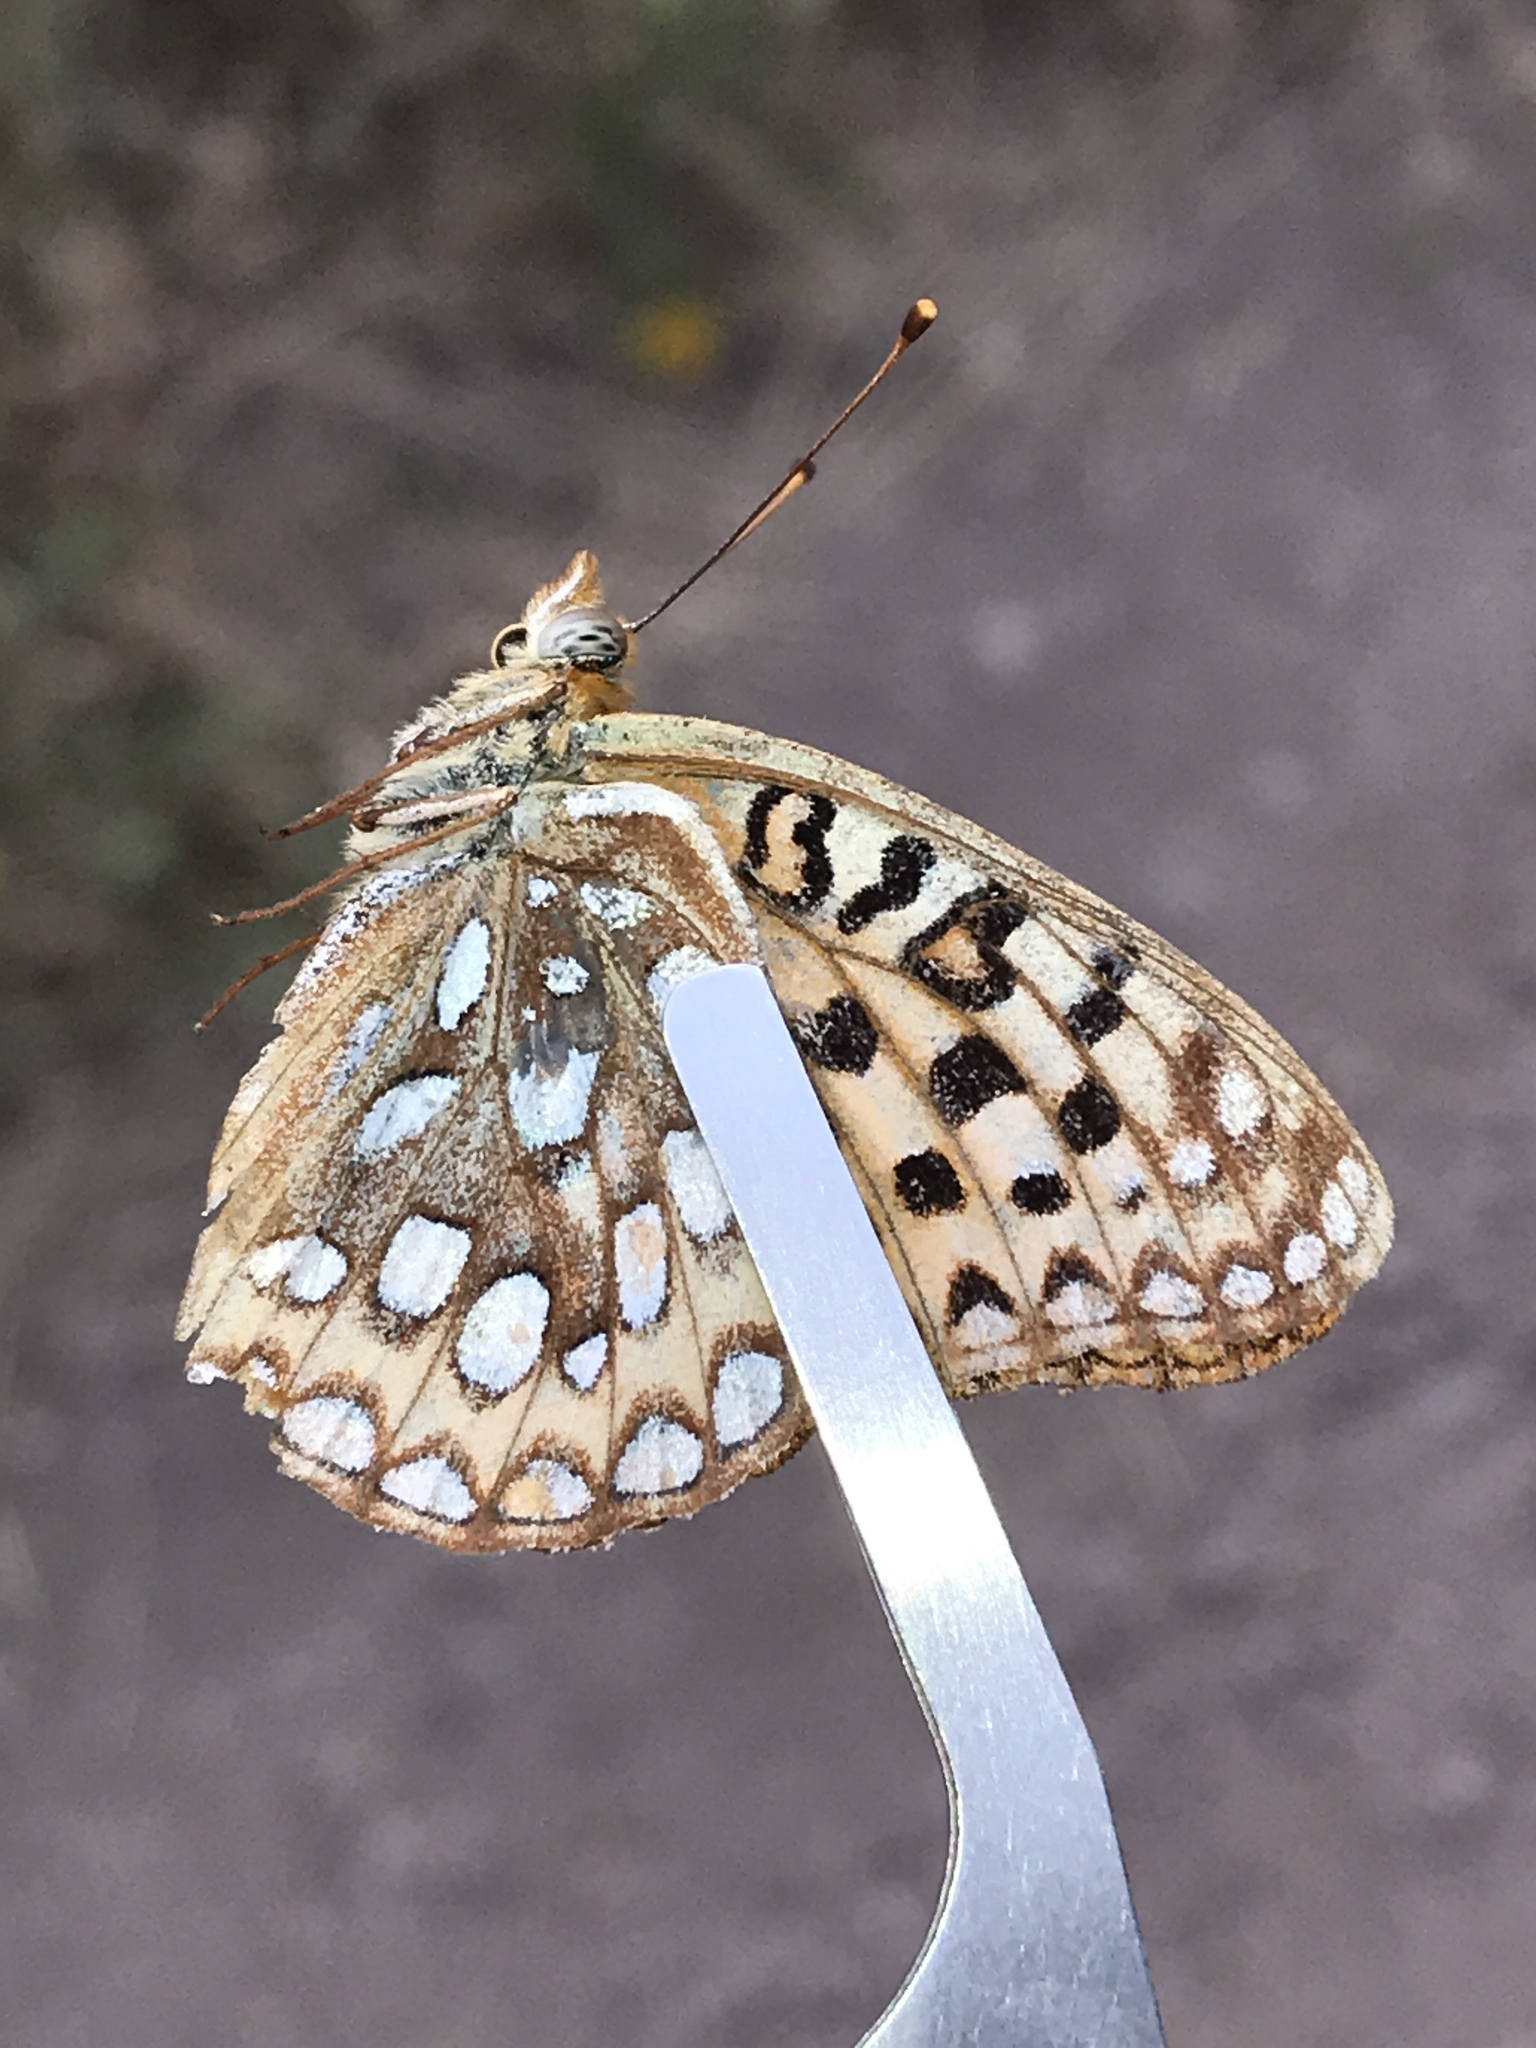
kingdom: Animalia
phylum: Arthropoda
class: Insecta
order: Lepidoptera
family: Nymphalidae
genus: Speyeria
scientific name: Speyeria zerene
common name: Zerene fritillary
